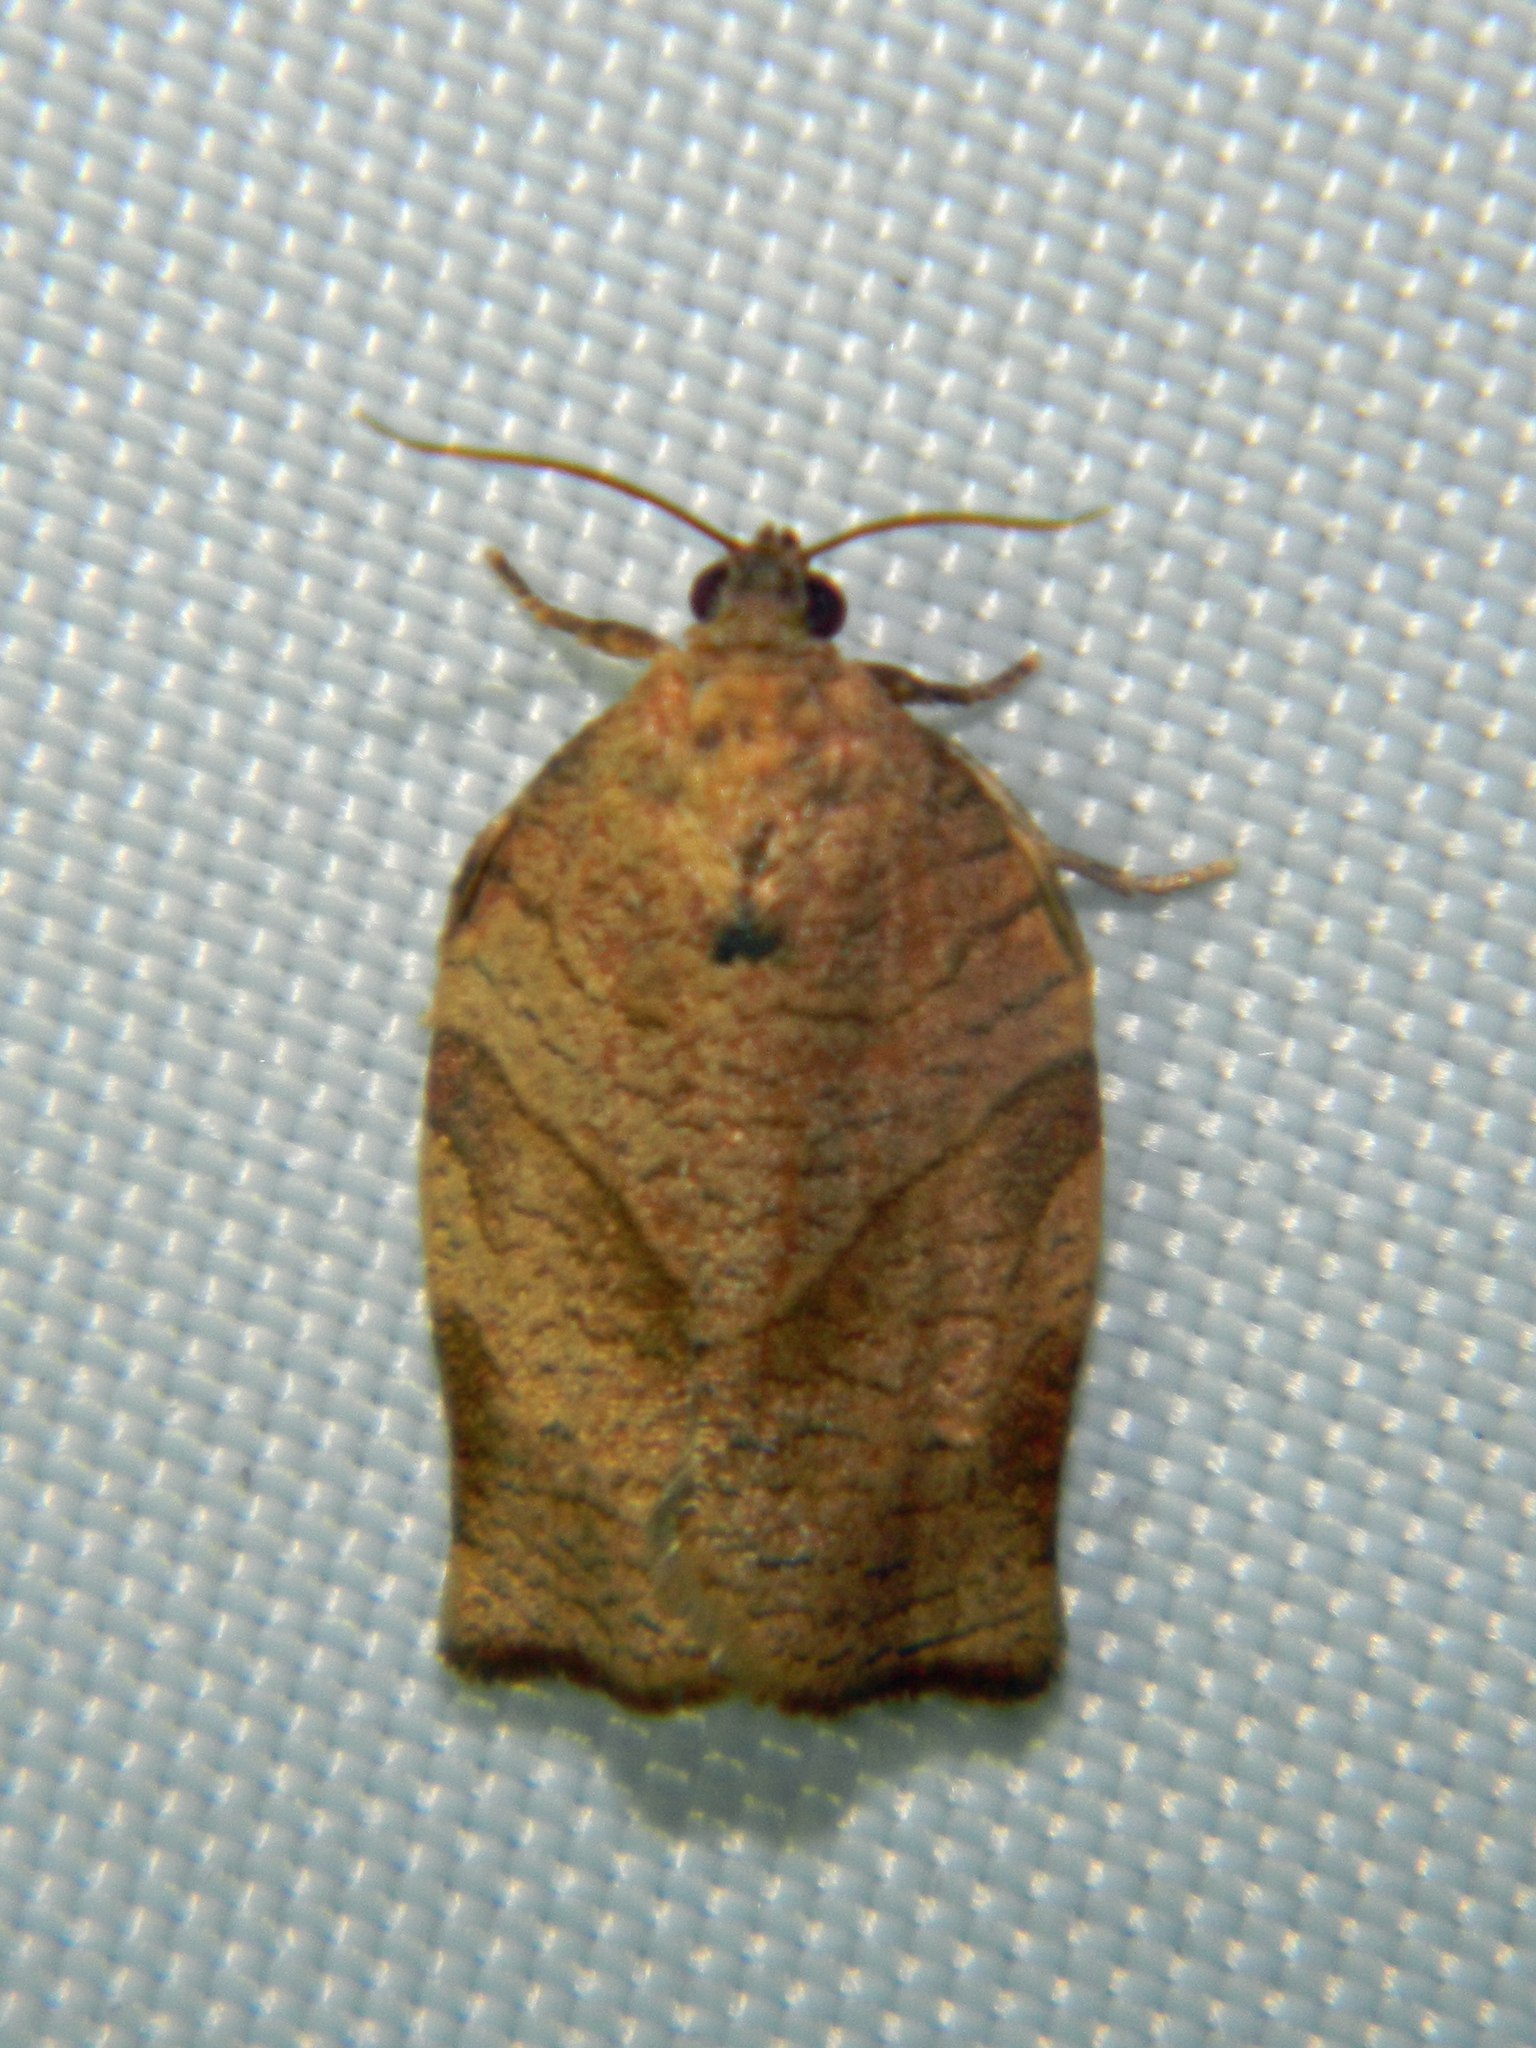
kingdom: Animalia
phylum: Arthropoda
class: Insecta
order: Lepidoptera
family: Tortricidae
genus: Choristoneura
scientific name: Choristoneura rosaceana
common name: Oblique-banded leafroller moth
